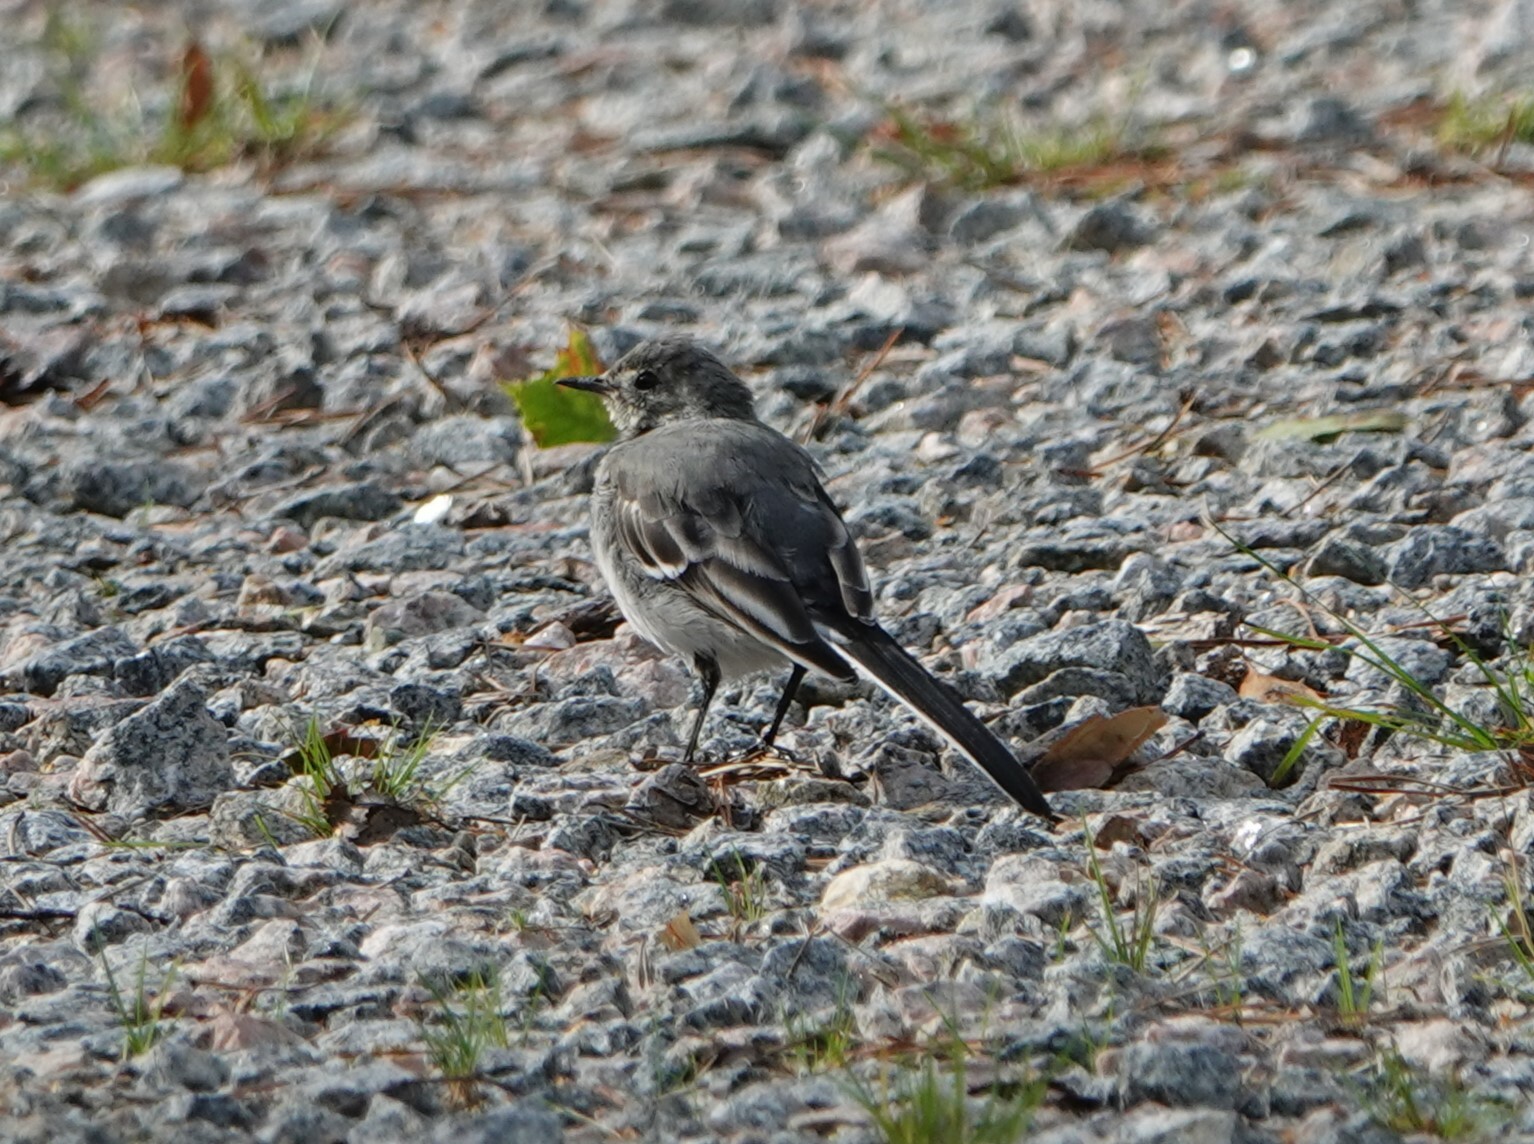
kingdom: Animalia
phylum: Chordata
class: Aves
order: Passeriformes
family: Motacillidae
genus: Motacilla
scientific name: Motacilla alba
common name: White wagtail
